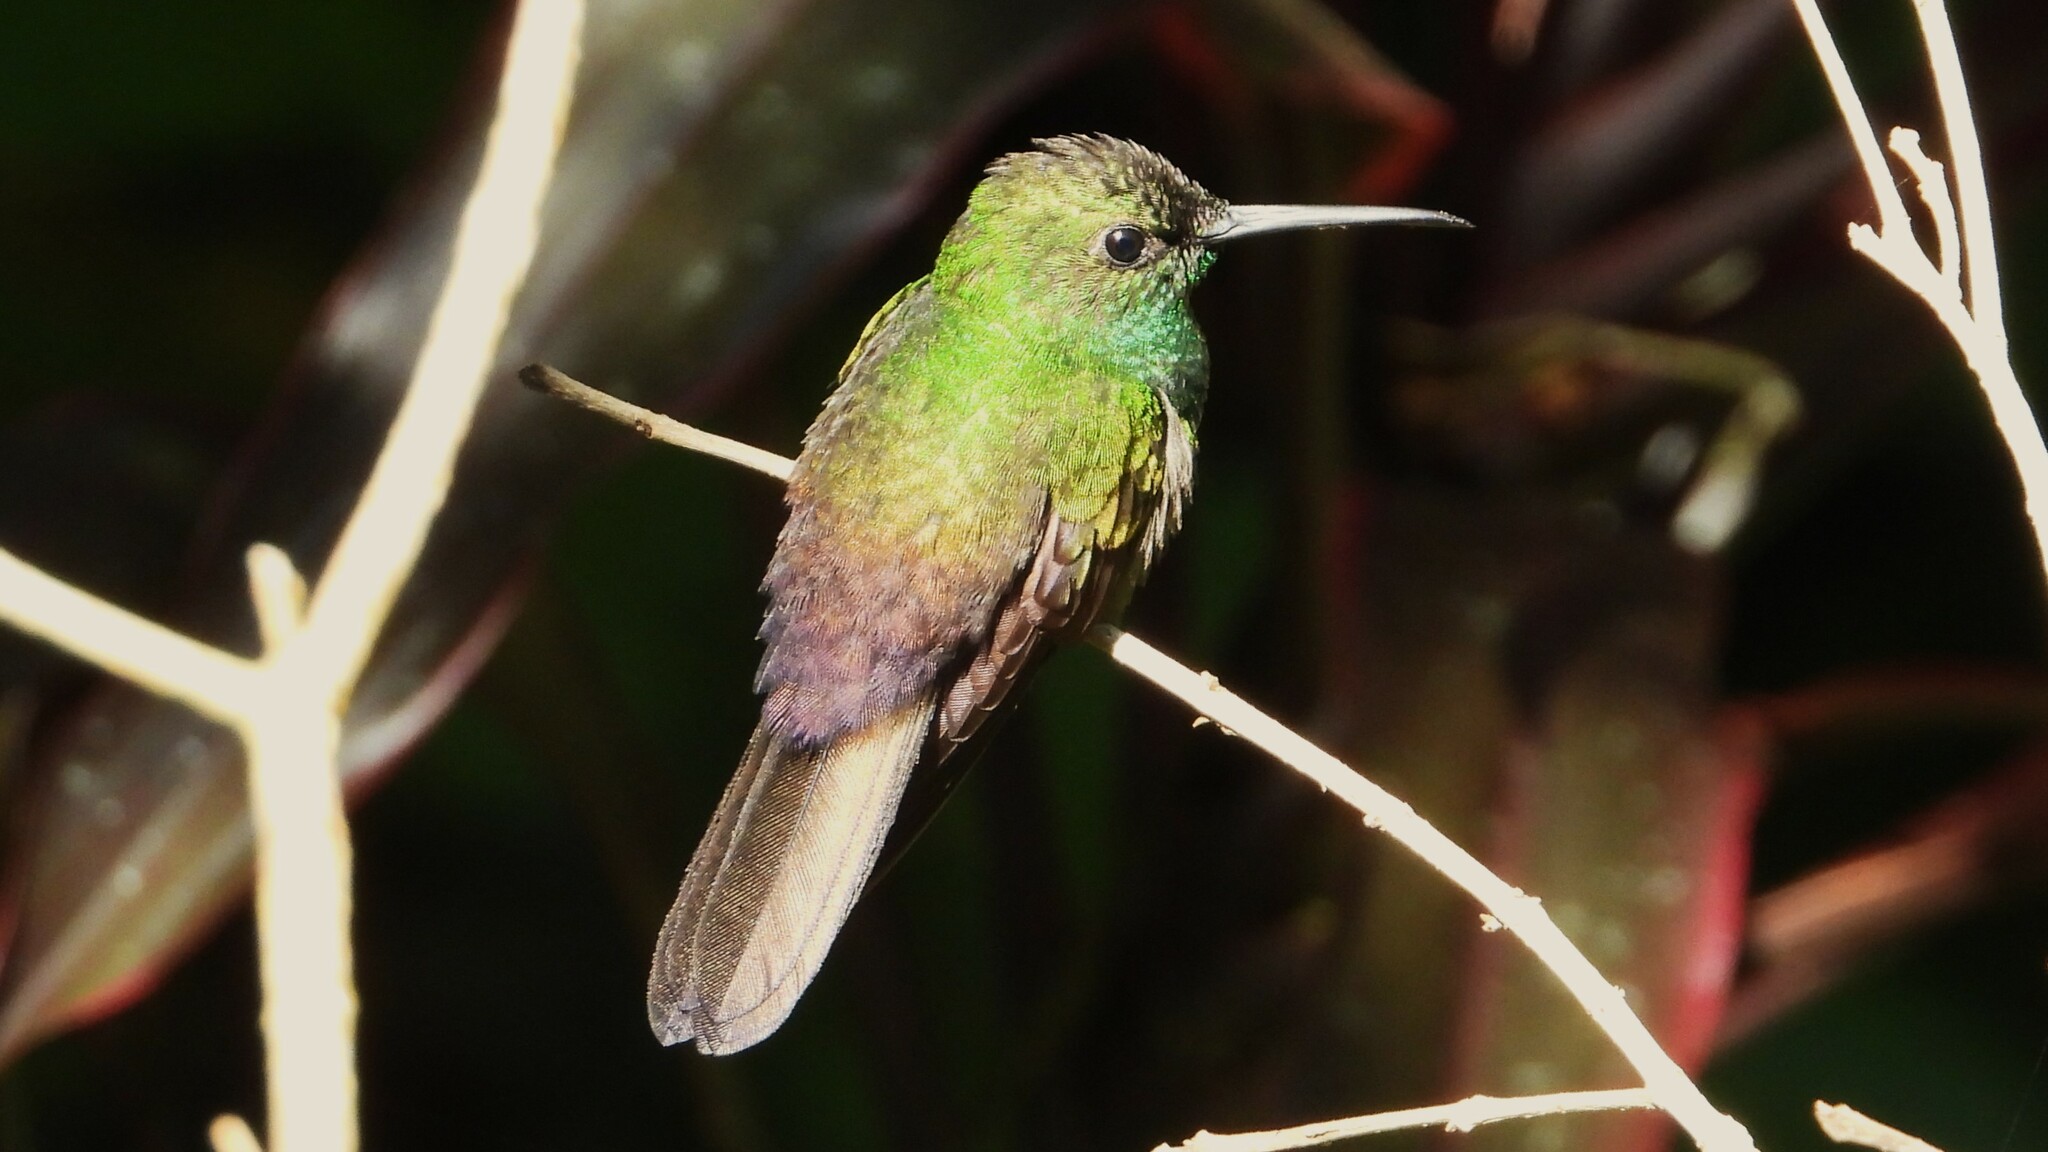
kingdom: Animalia
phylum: Chordata
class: Aves
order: Apodiformes
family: Trochilidae
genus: Chalybura
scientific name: Chalybura urochrysia
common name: Bronze-tailed plumeleteer
